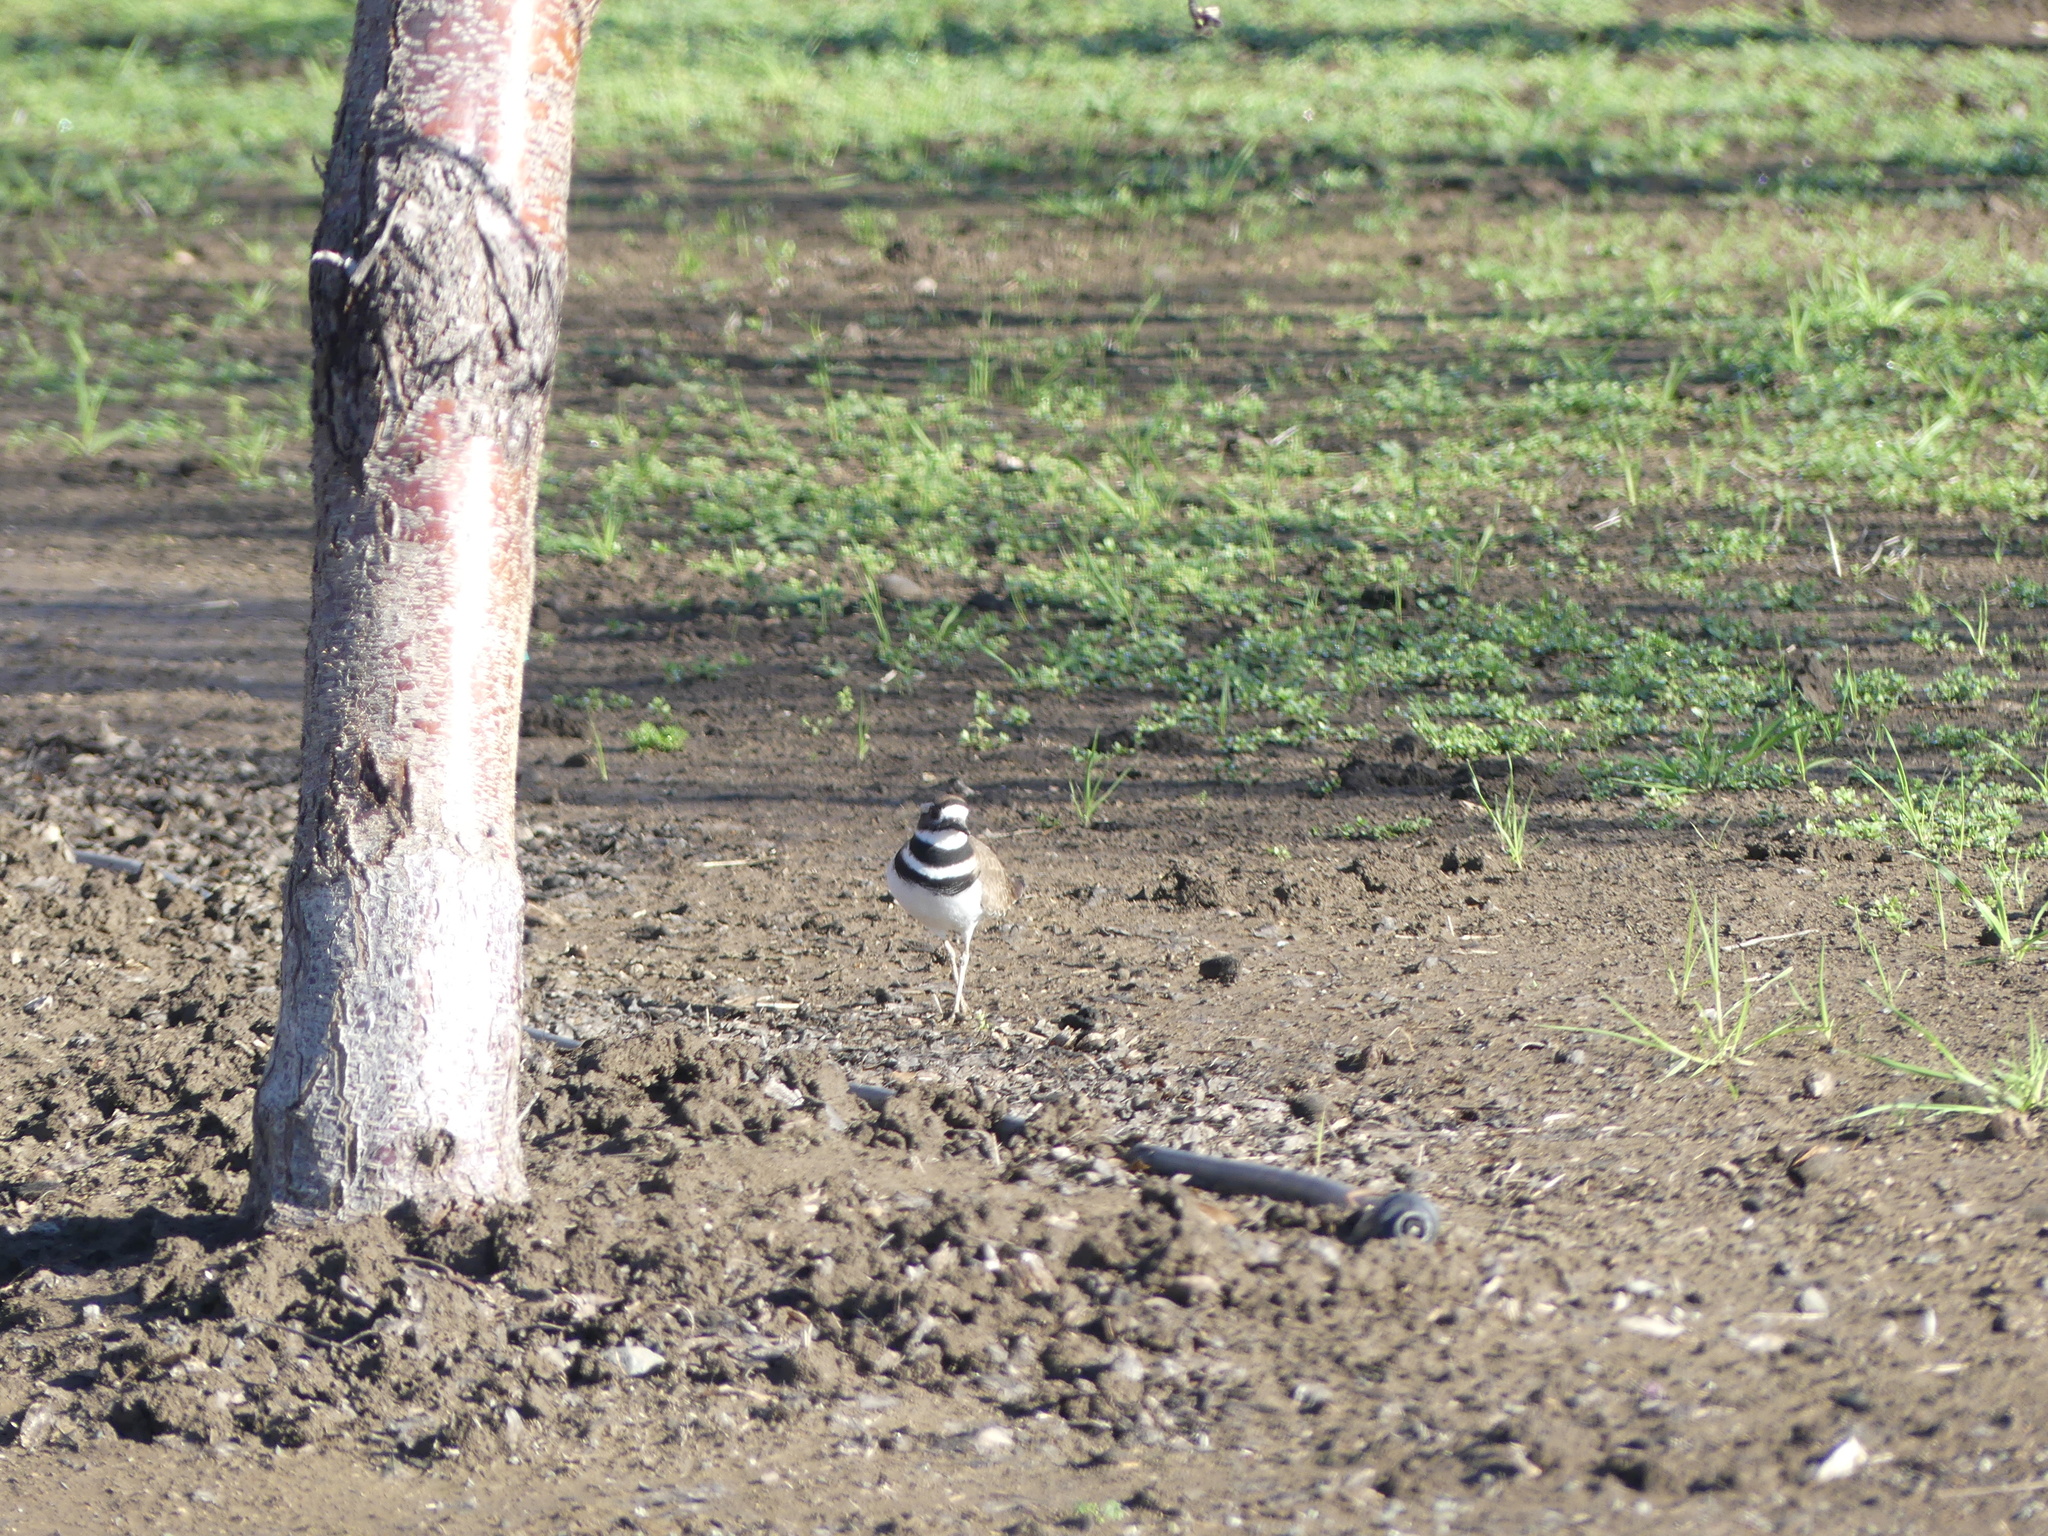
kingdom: Animalia
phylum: Chordata
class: Aves
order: Charadriiformes
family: Charadriidae
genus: Charadrius
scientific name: Charadrius vociferus
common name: Killdeer
